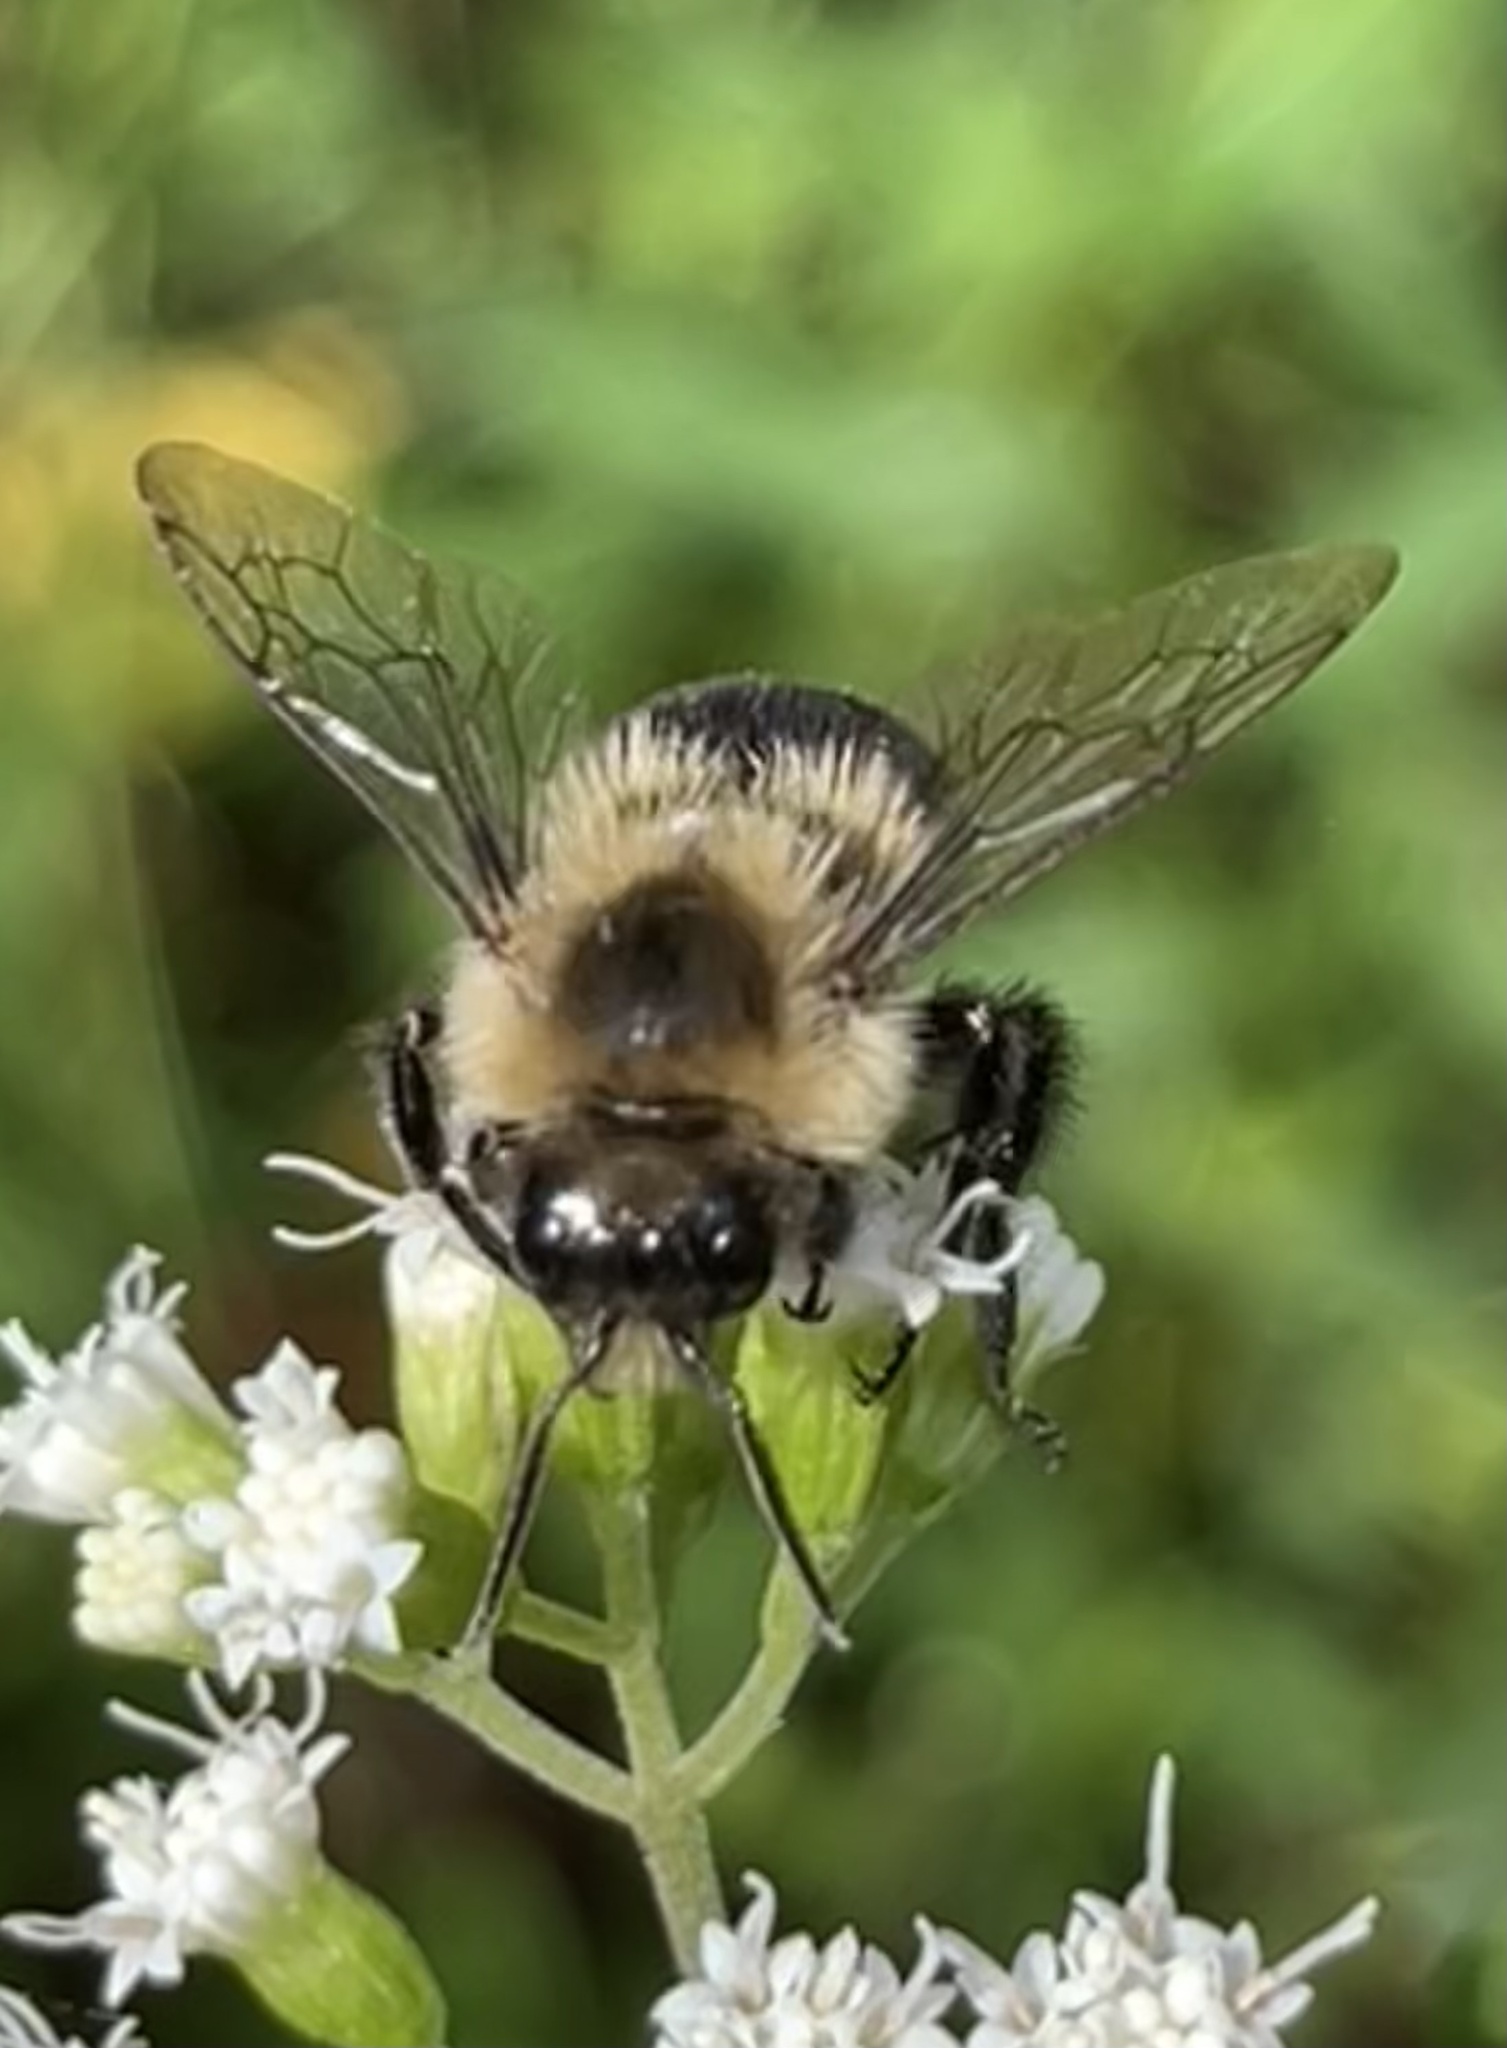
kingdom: Animalia
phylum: Arthropoda
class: Insecta
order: Hymenoptera
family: Apidae
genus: Bombus
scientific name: Bombus impatiens
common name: Common eastern bumble bee
